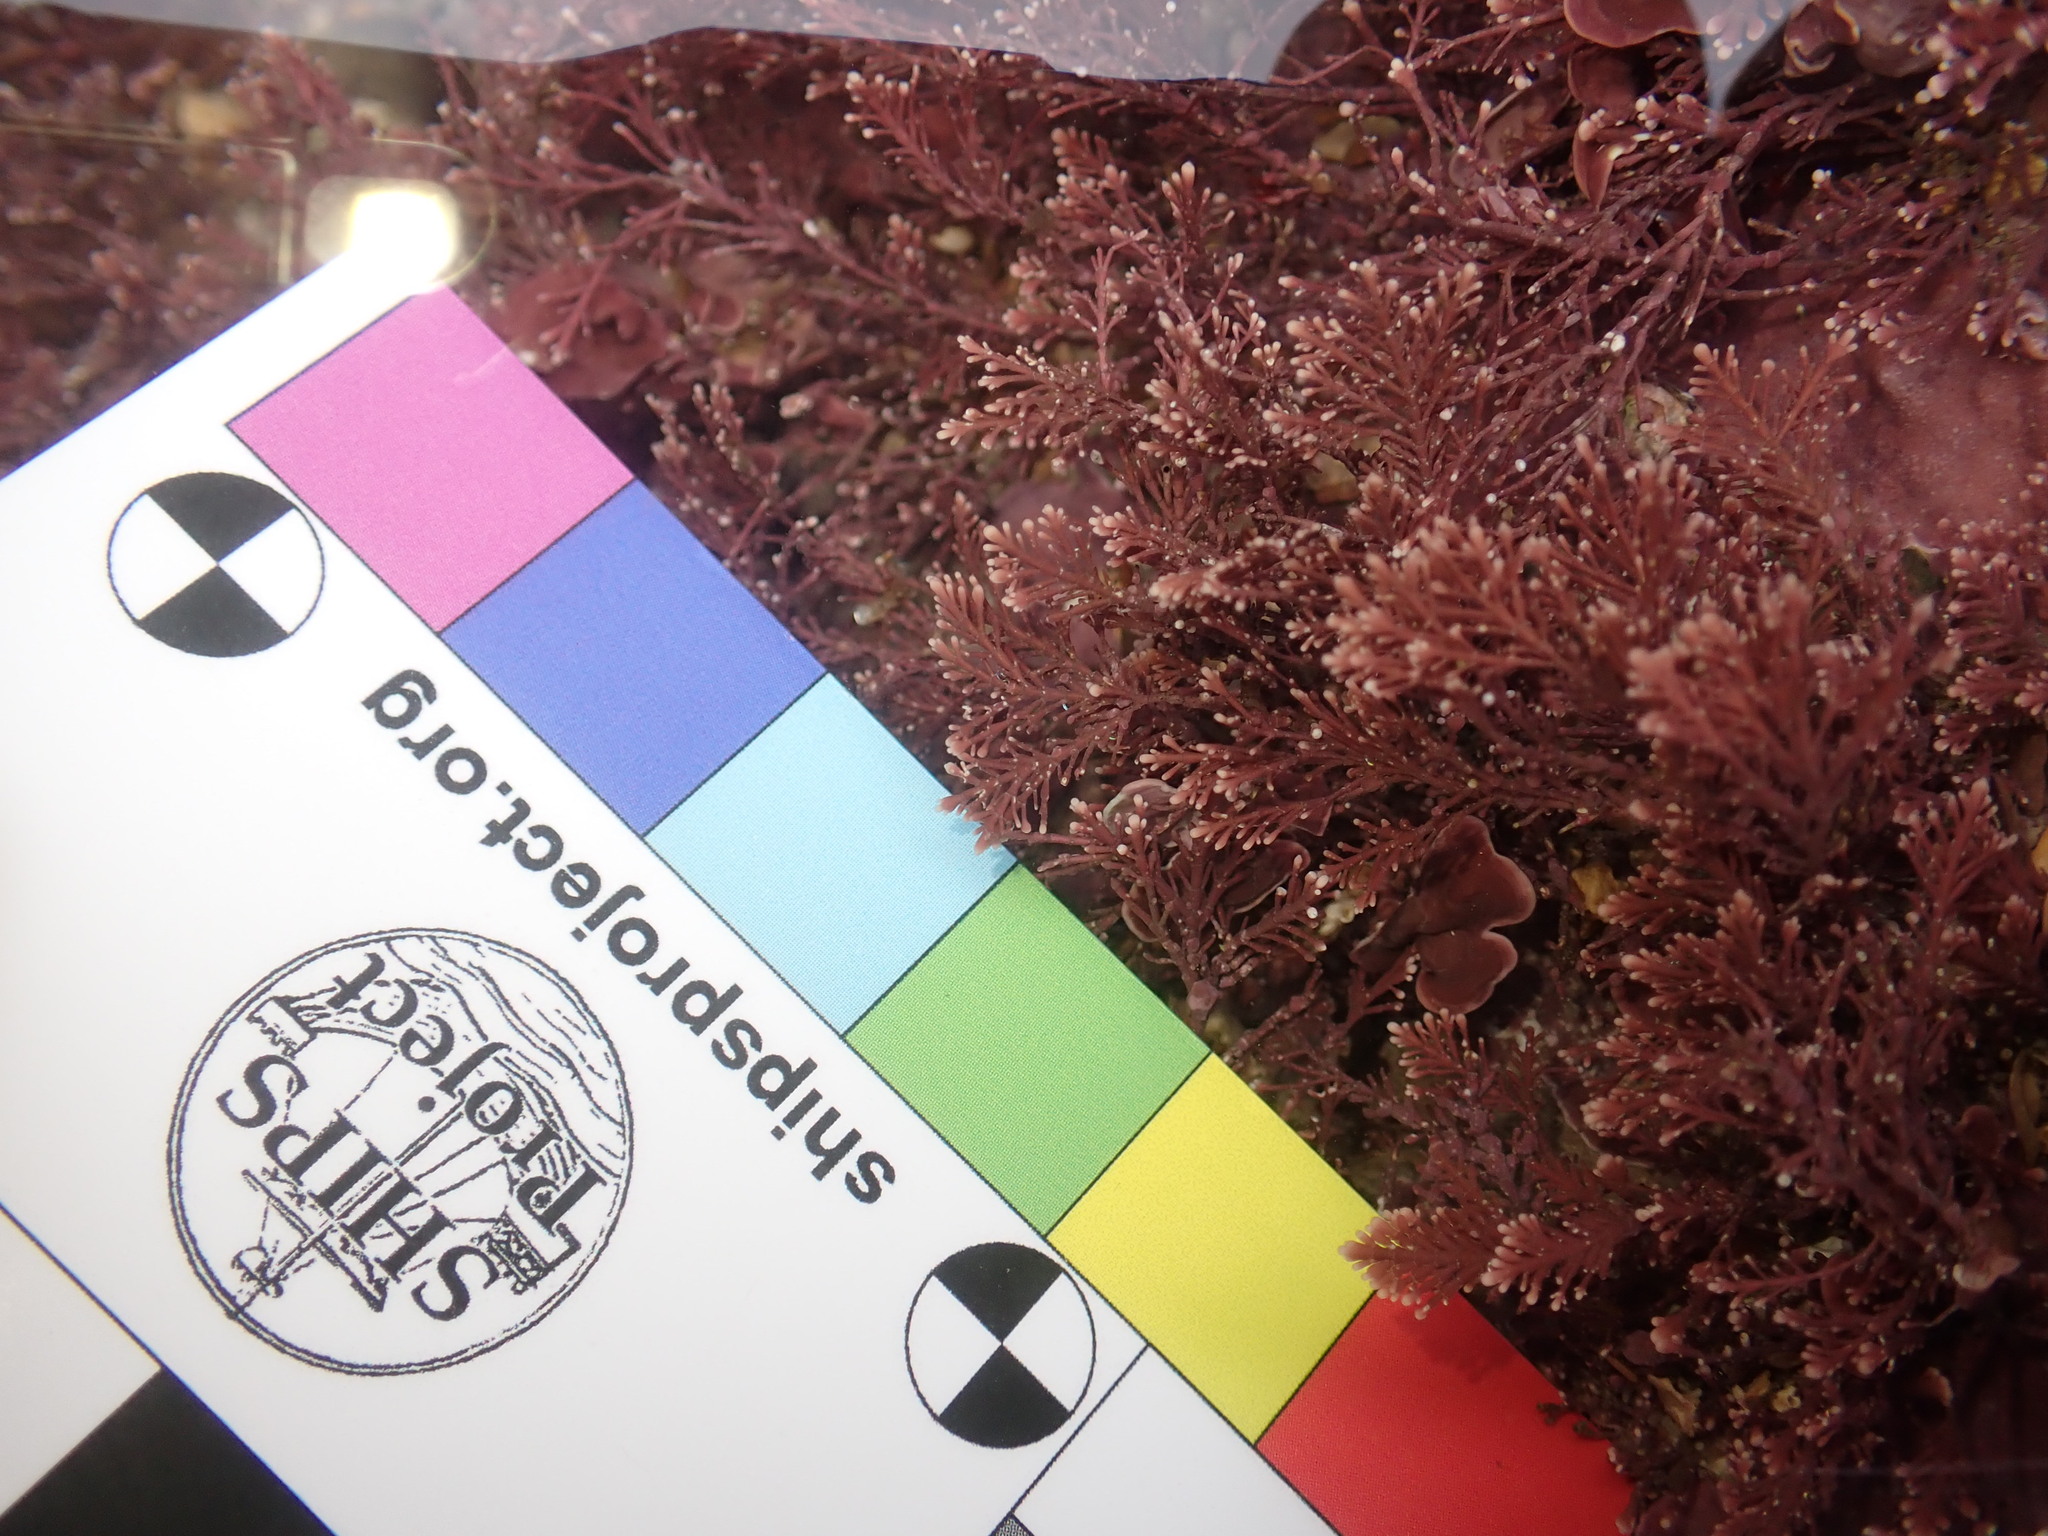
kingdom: Plantae
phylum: Rhodophyta
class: Florideophyceae
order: Corallinales
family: Corallinaceae
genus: Corallina
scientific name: Corallina officinalis
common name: Coral weed
